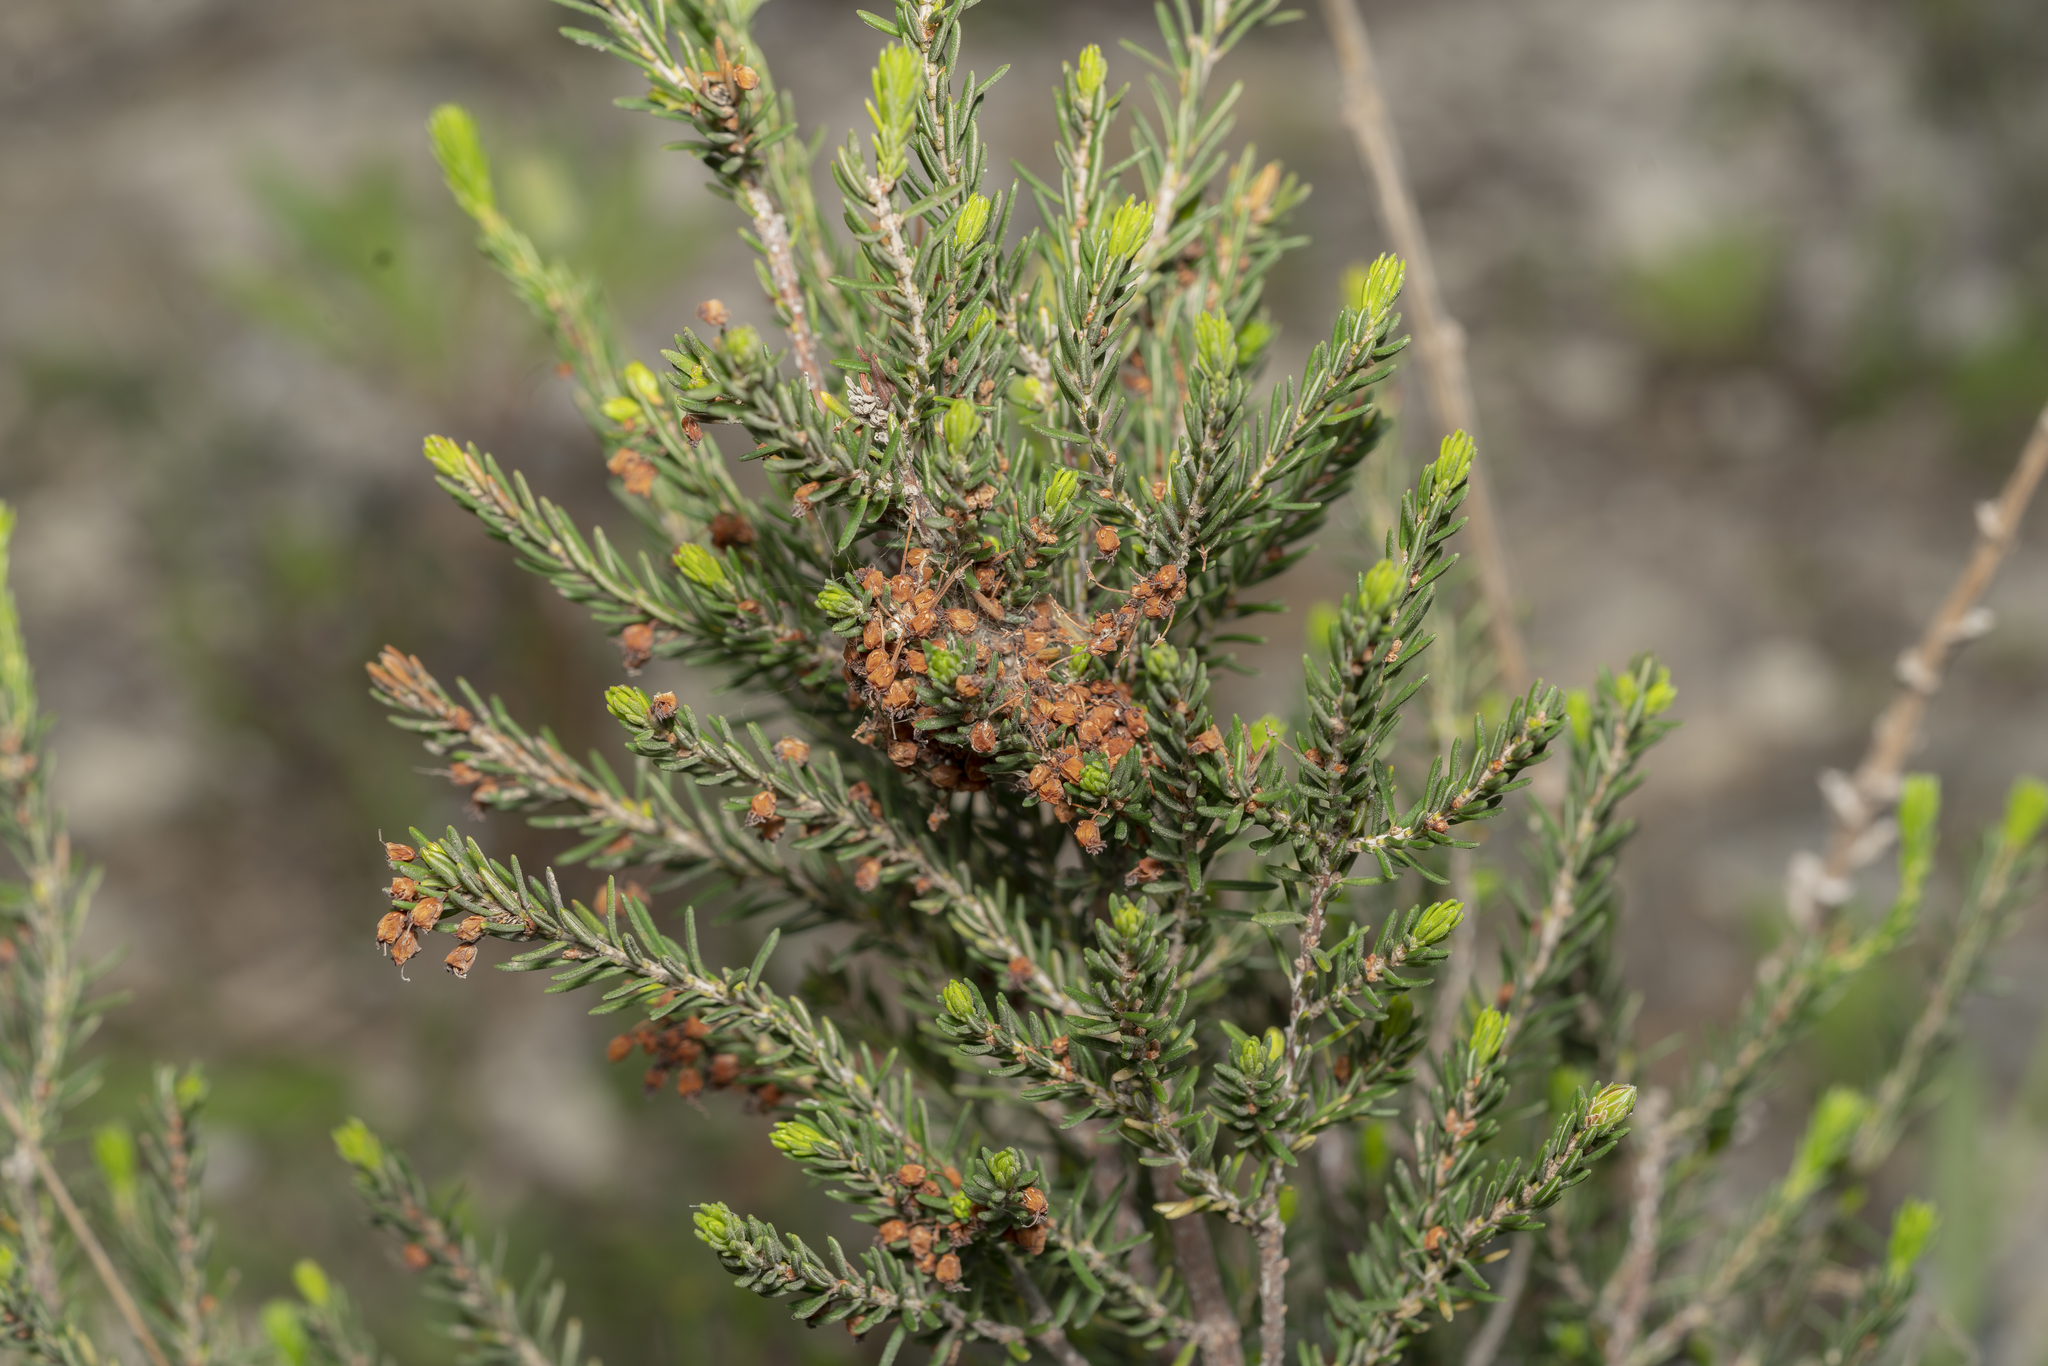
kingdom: Plantae
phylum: Tracheophyta
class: Magnoliopsida
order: Ericales
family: Ericaceae
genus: Erica
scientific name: Erica manipuliflora
